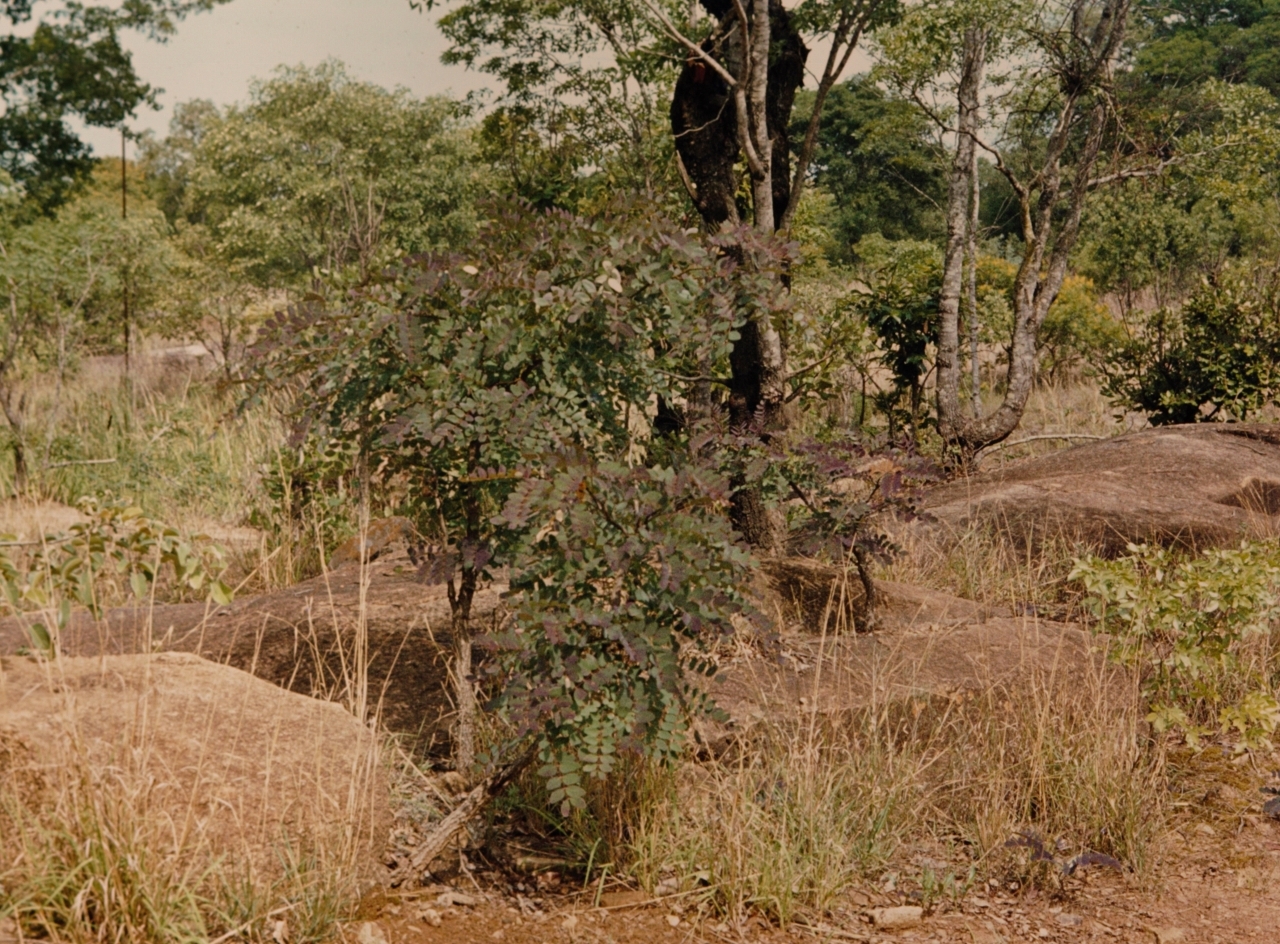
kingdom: Plantae
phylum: Tracheophyta
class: Magnoliopsida
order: Fabales
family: Fabaceae
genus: Albizia
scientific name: Albizia antunesiana
